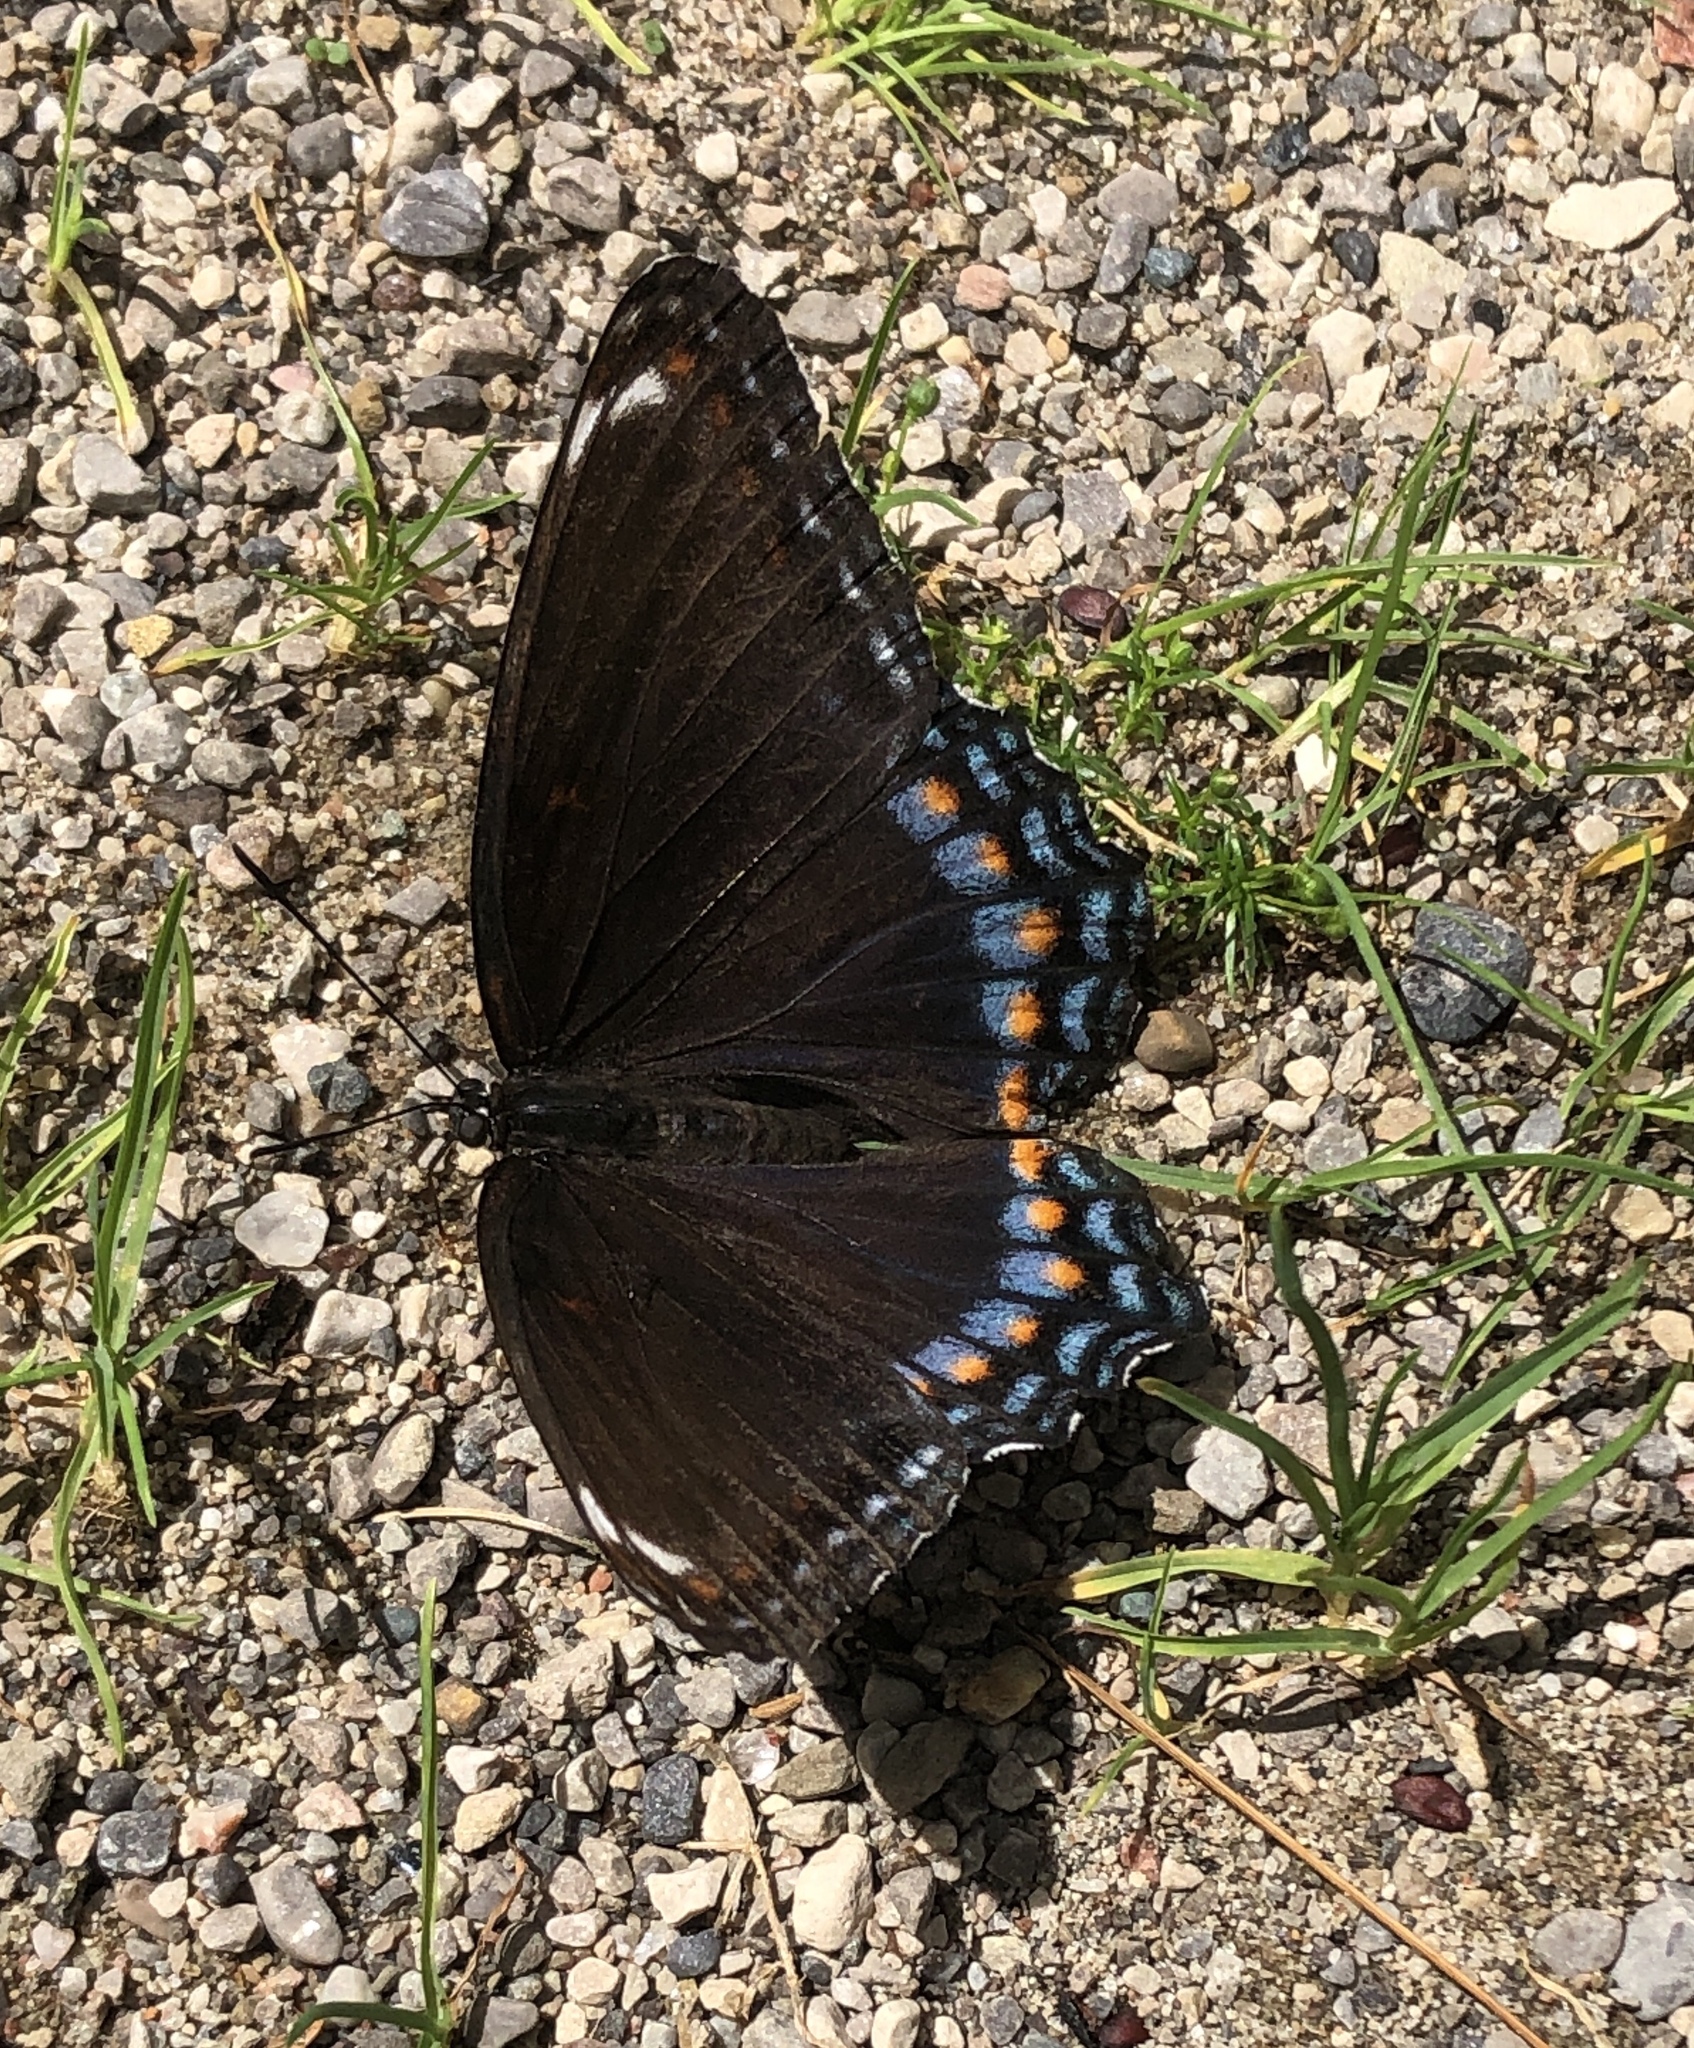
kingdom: Animalia
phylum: Arthropoda
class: Insecta
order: Lepidoptera
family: Nymphalidae
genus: Limenitis
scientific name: Limenitis astyanax
